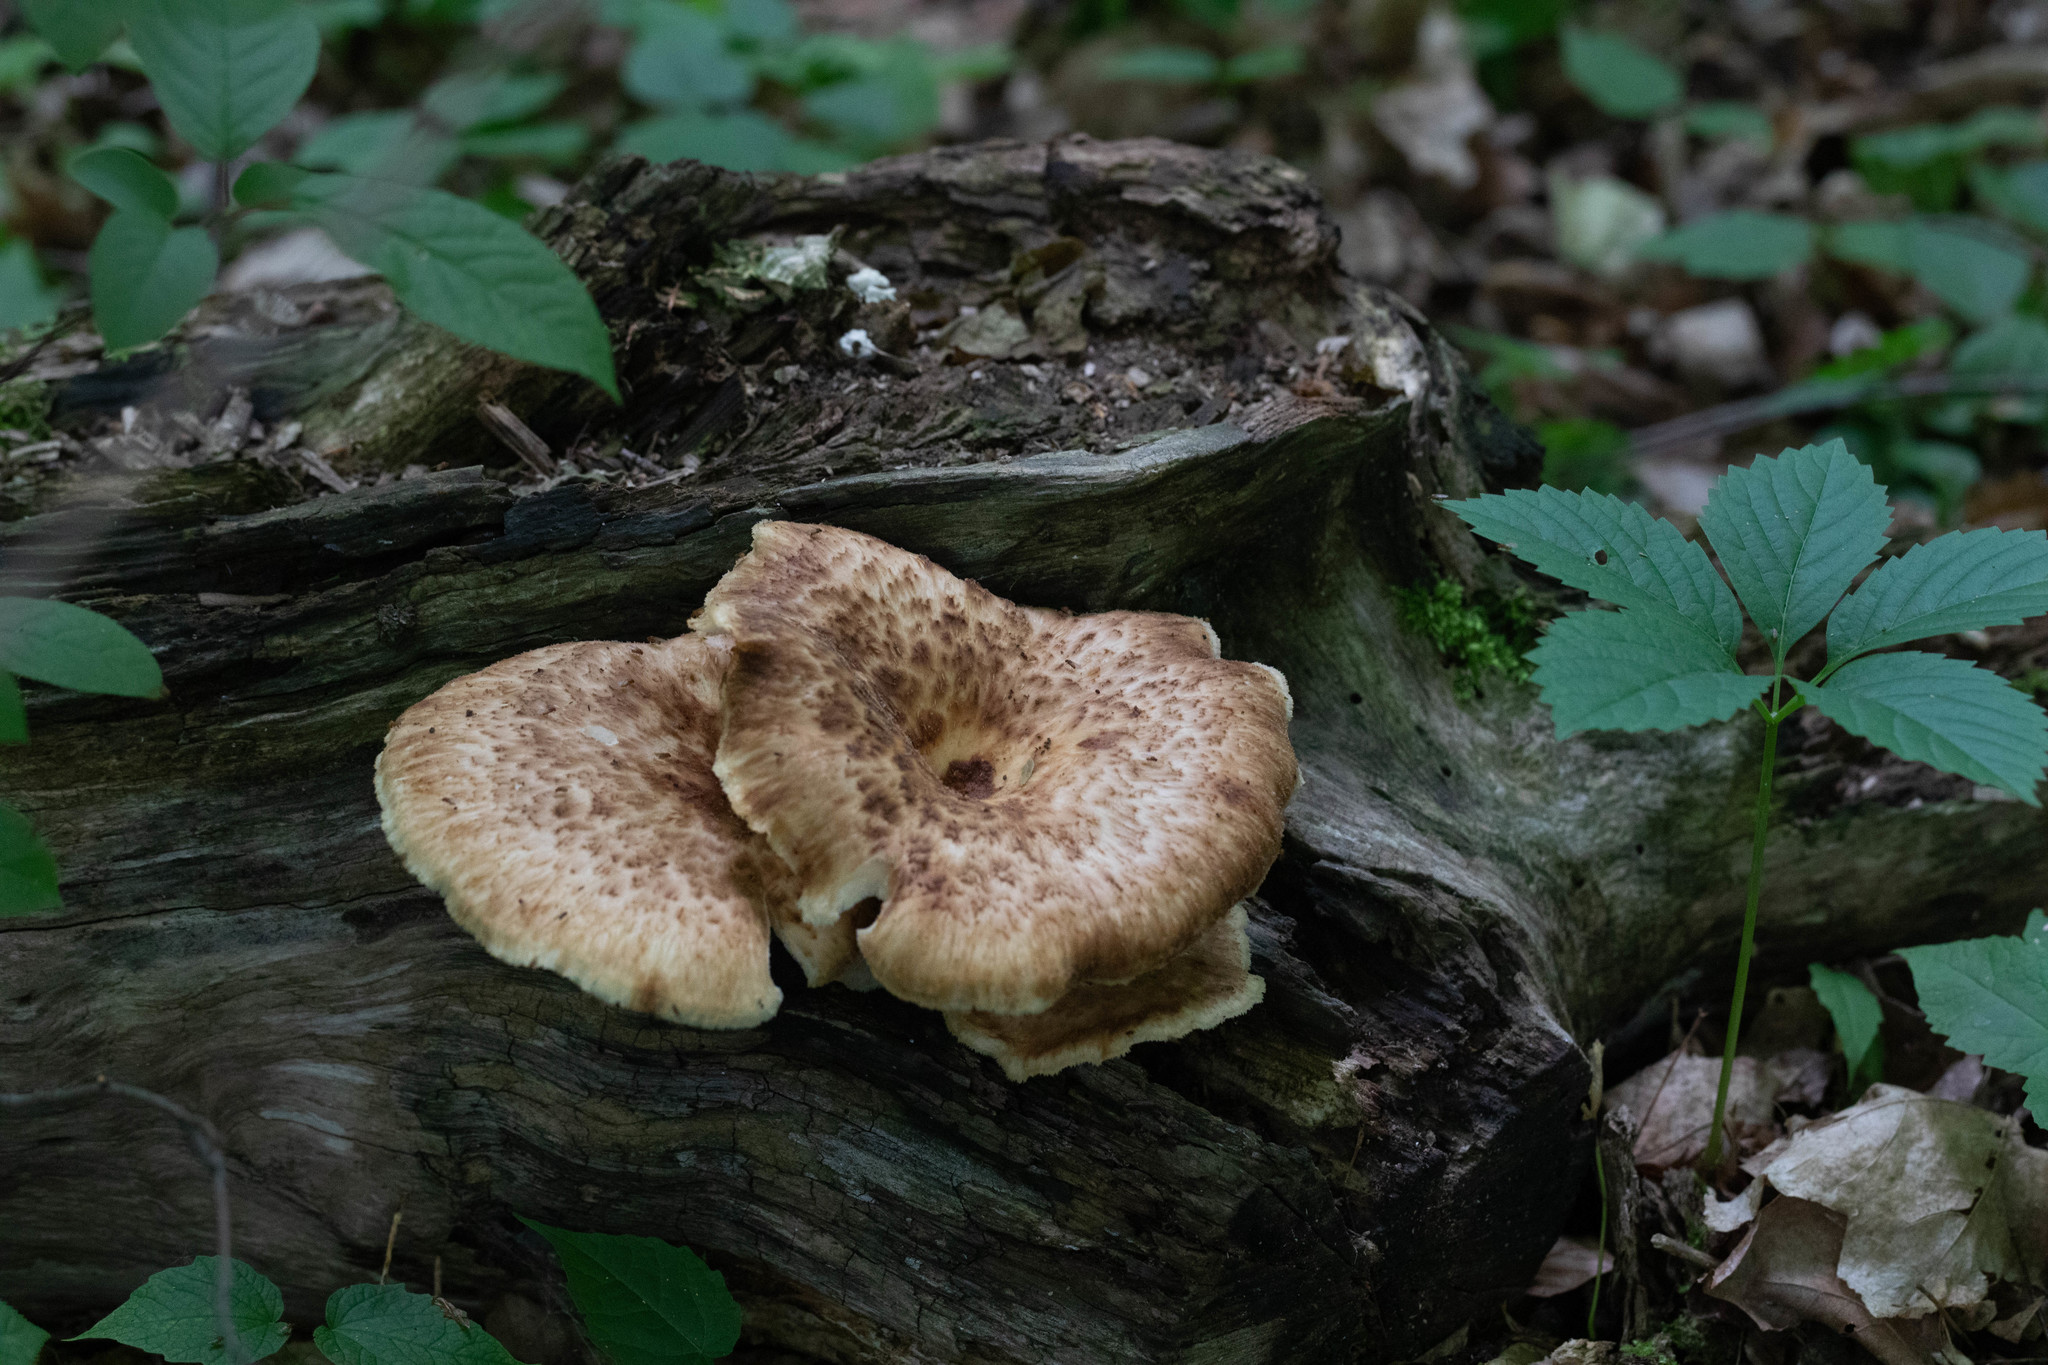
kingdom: Fungi
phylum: Basidiomycota
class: Agaricomycetes
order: Polyporales
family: Polyporaceae
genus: Cerioporus
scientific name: Cerioporus squamosus
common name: Dryad's saddle
